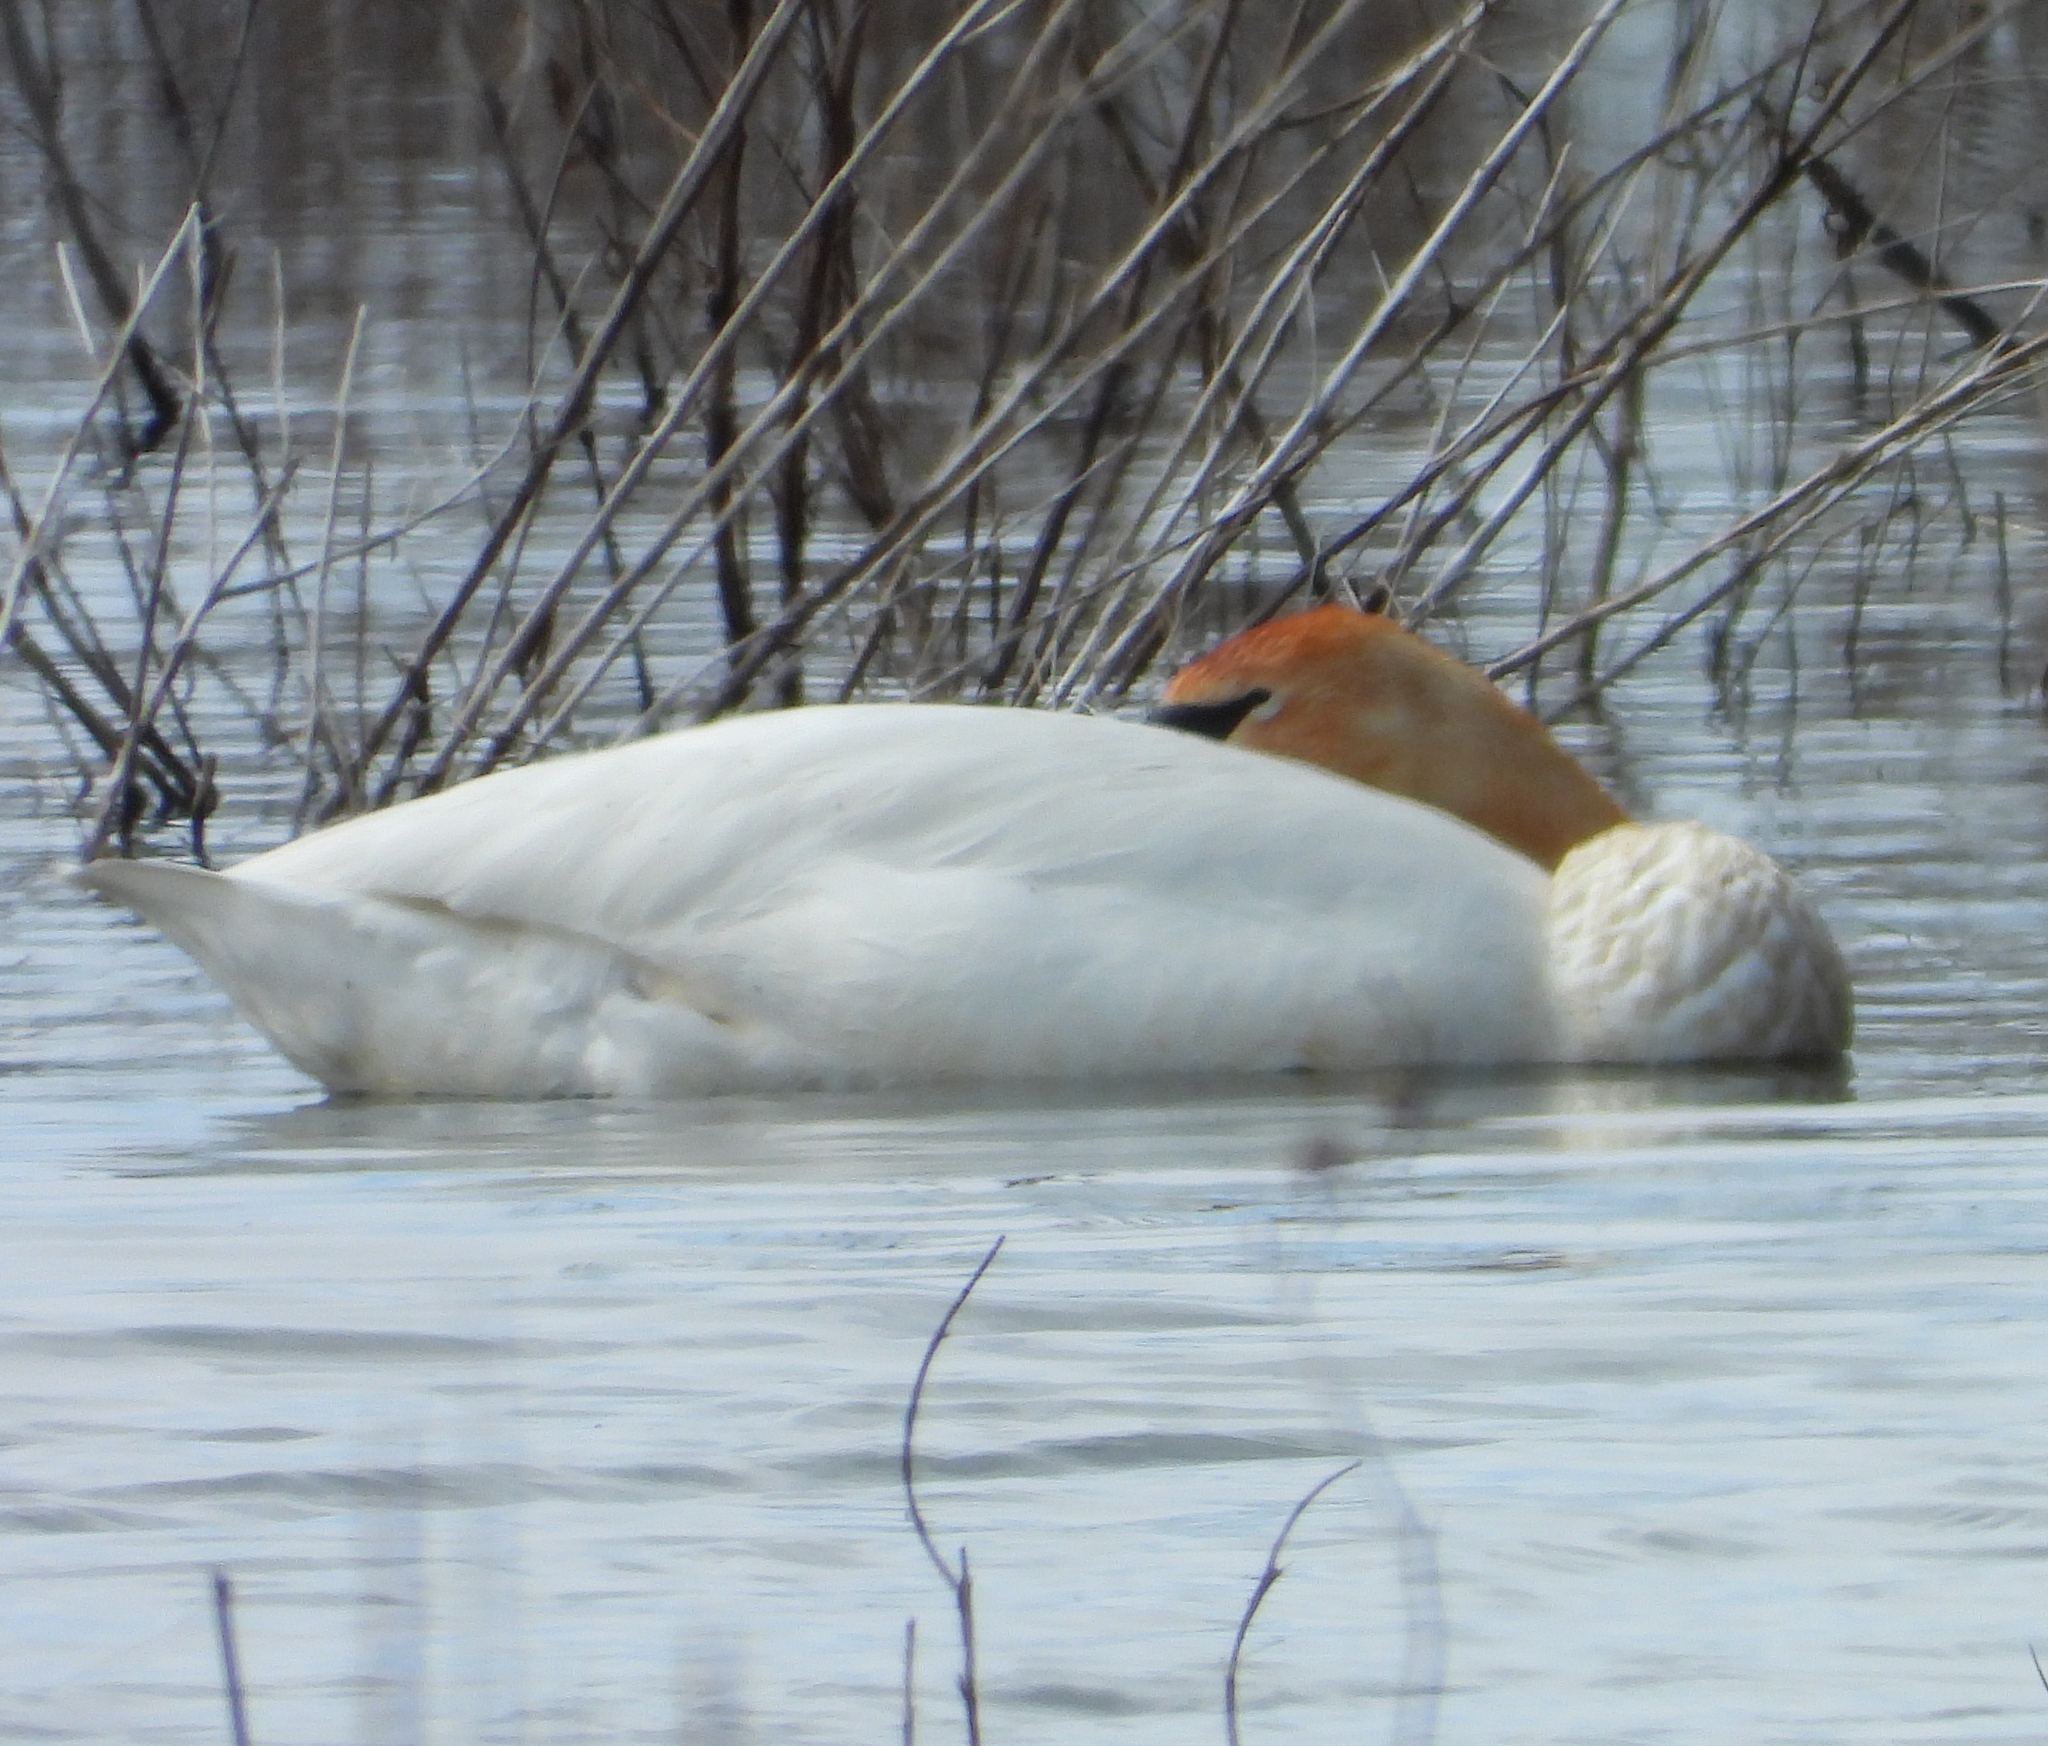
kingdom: Animalia
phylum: Chordata
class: Aves
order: Anseriformes
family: Anatidae
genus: Cygnus
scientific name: Cygnus buccinator
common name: Trumpeter swan
